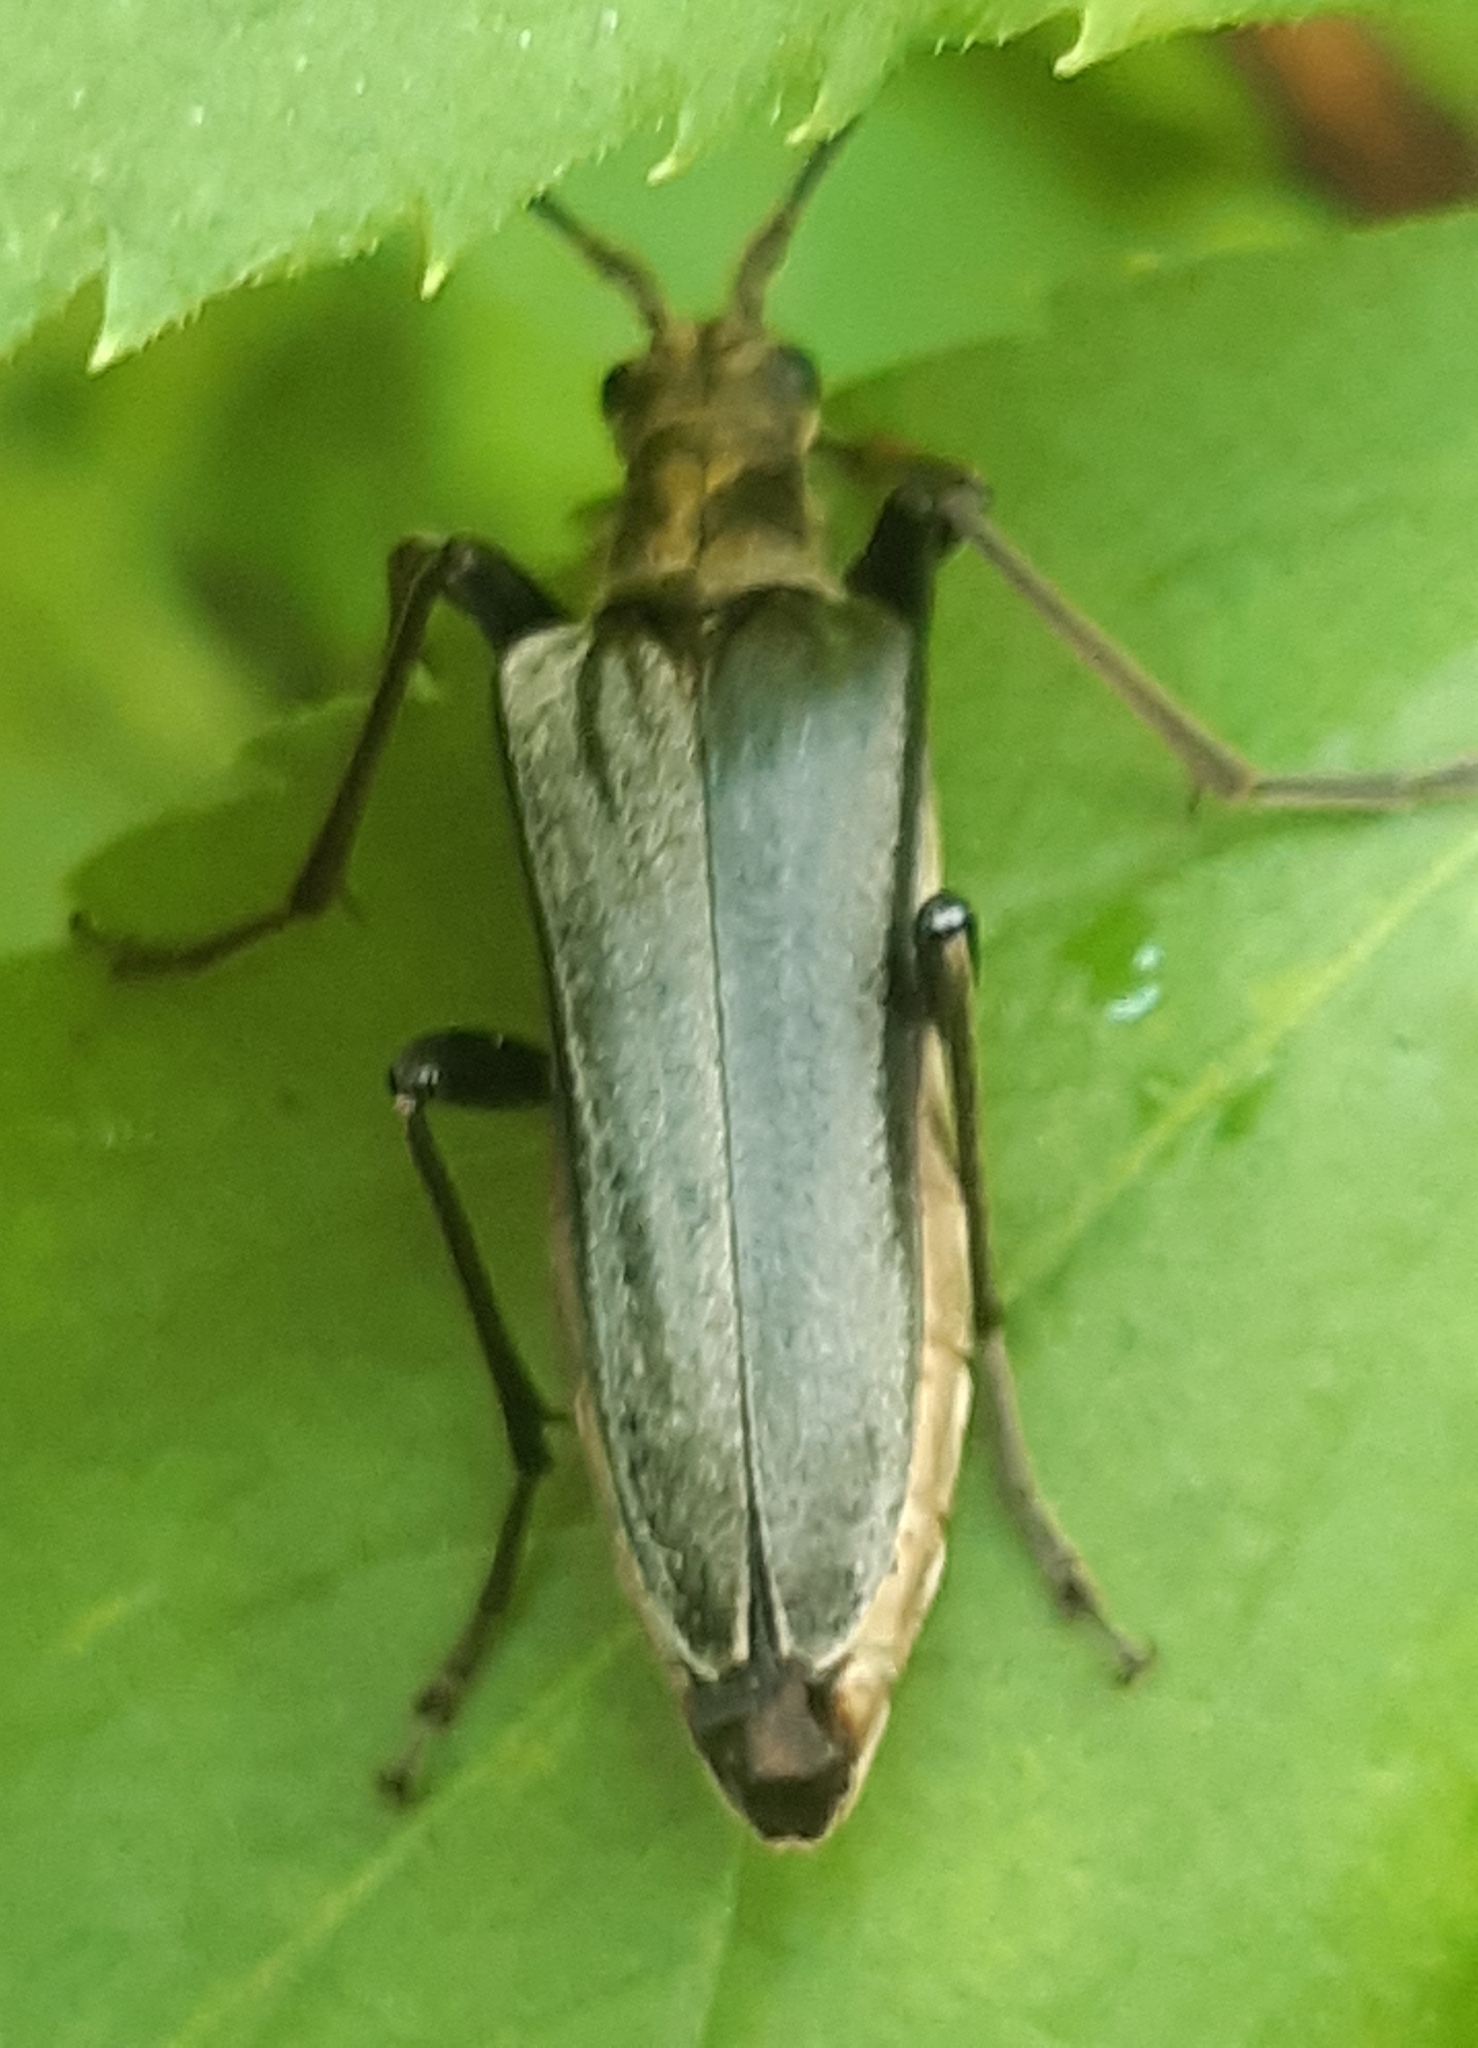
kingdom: Animalia
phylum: Arthropoda
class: Insecta
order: Coleoptera
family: Cerambycidae
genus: Stenocorus
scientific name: Stenocorus meridianus
